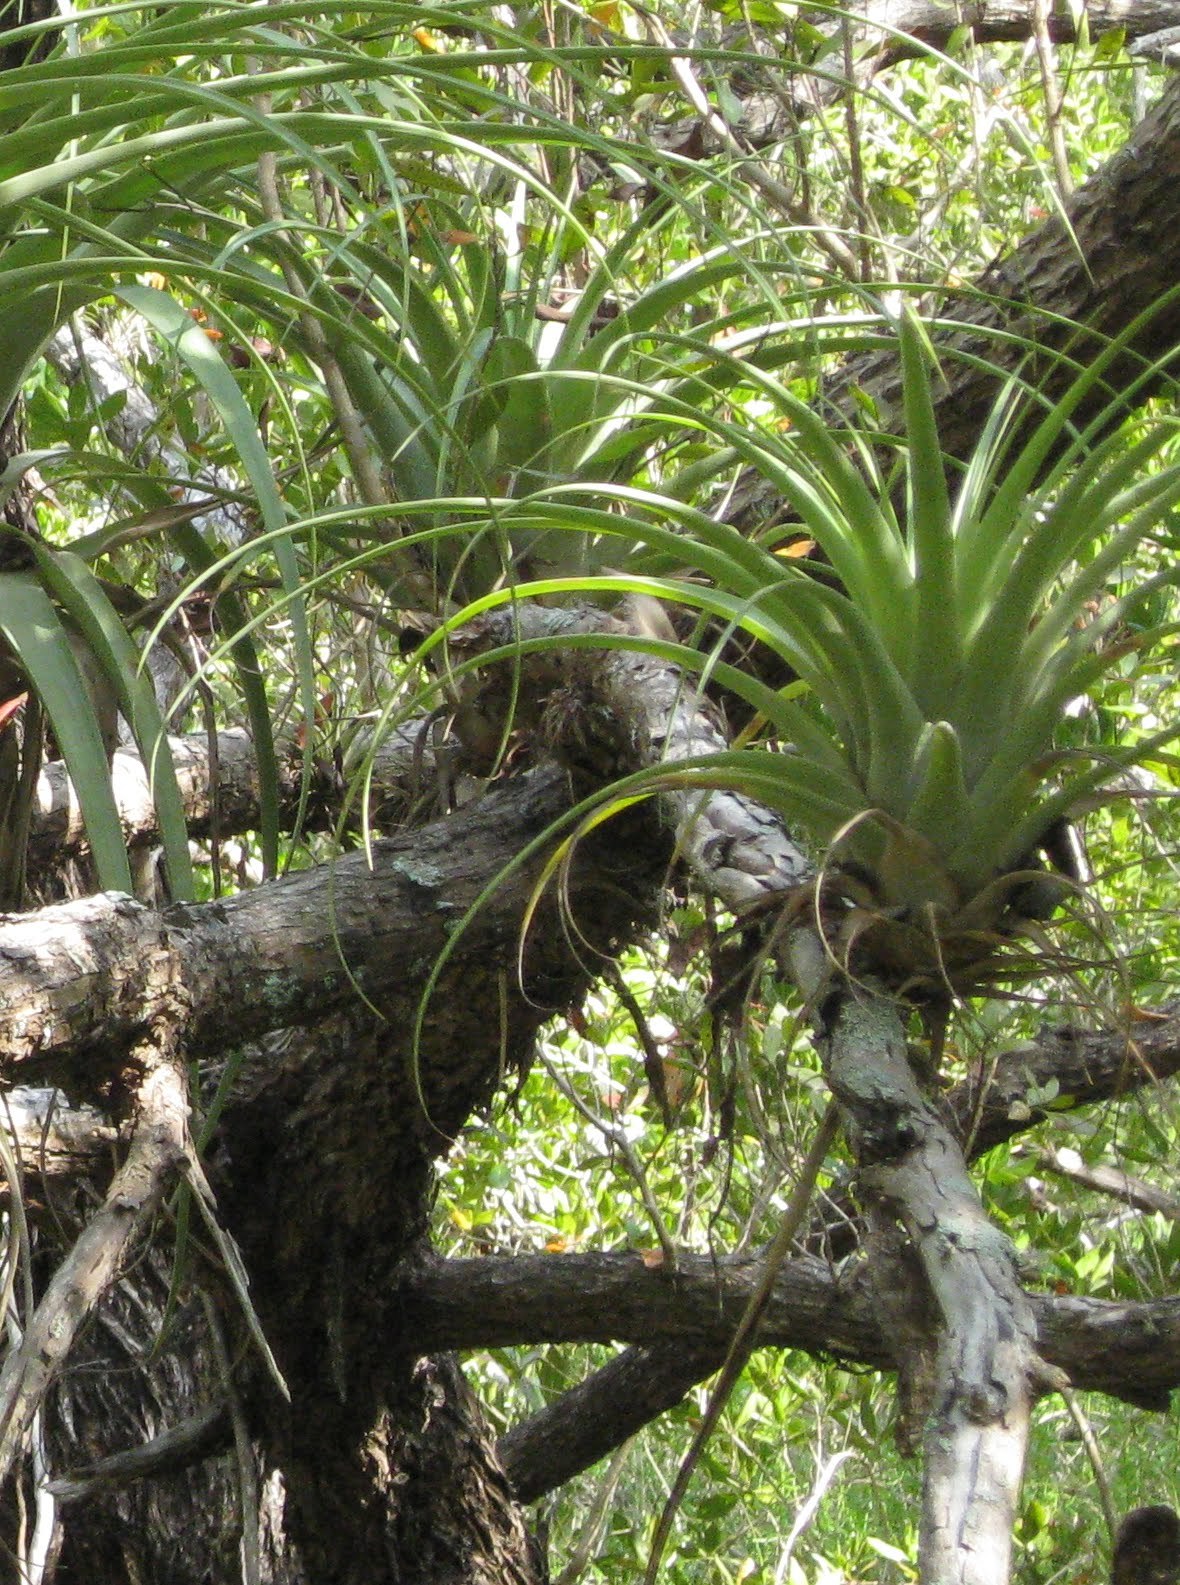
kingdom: Plantae
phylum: Tracheophyta
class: Liliopsida
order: Poales
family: Bromeliaceae
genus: Tillandsia
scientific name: Tillandsia utriculata
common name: Wild pine
